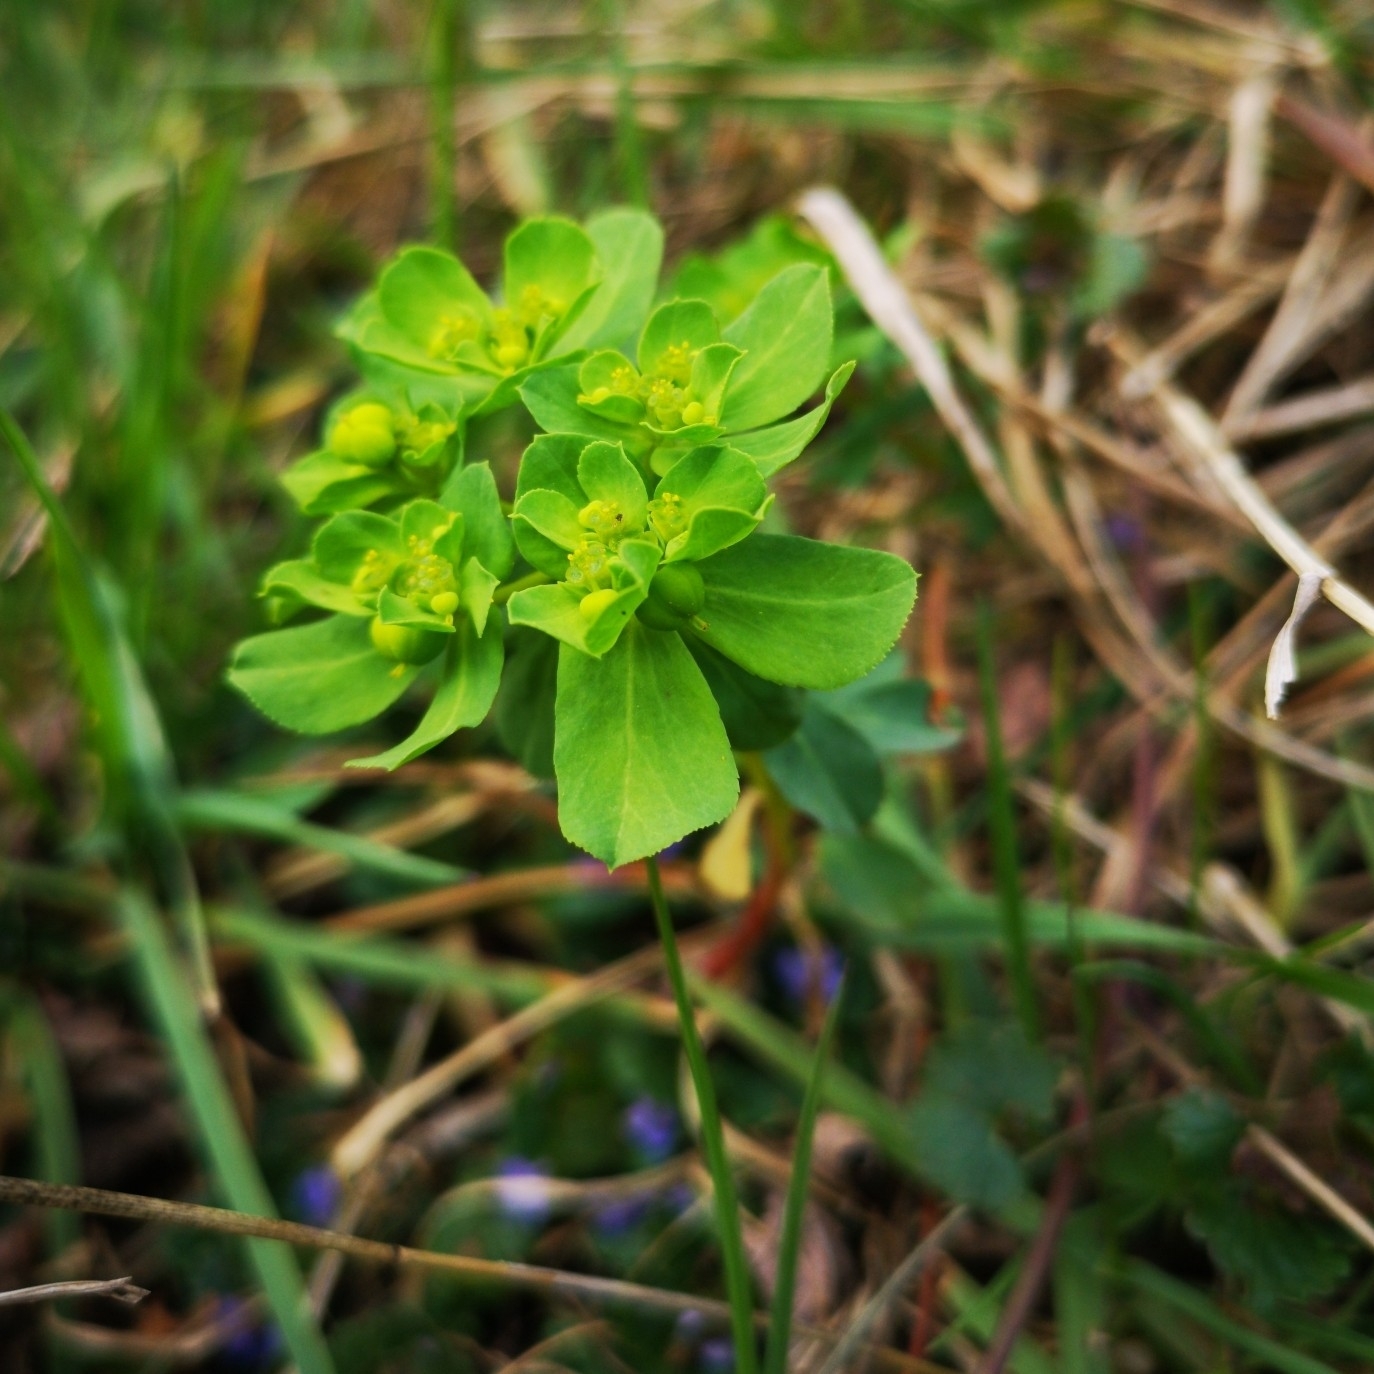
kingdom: Plantae
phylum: Tracheophyta
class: Magnoliopsida
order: Malpighiales
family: Euphorbiaceae
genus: Euphorbia
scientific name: Euphorbia helioscopia
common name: Sun spurge
